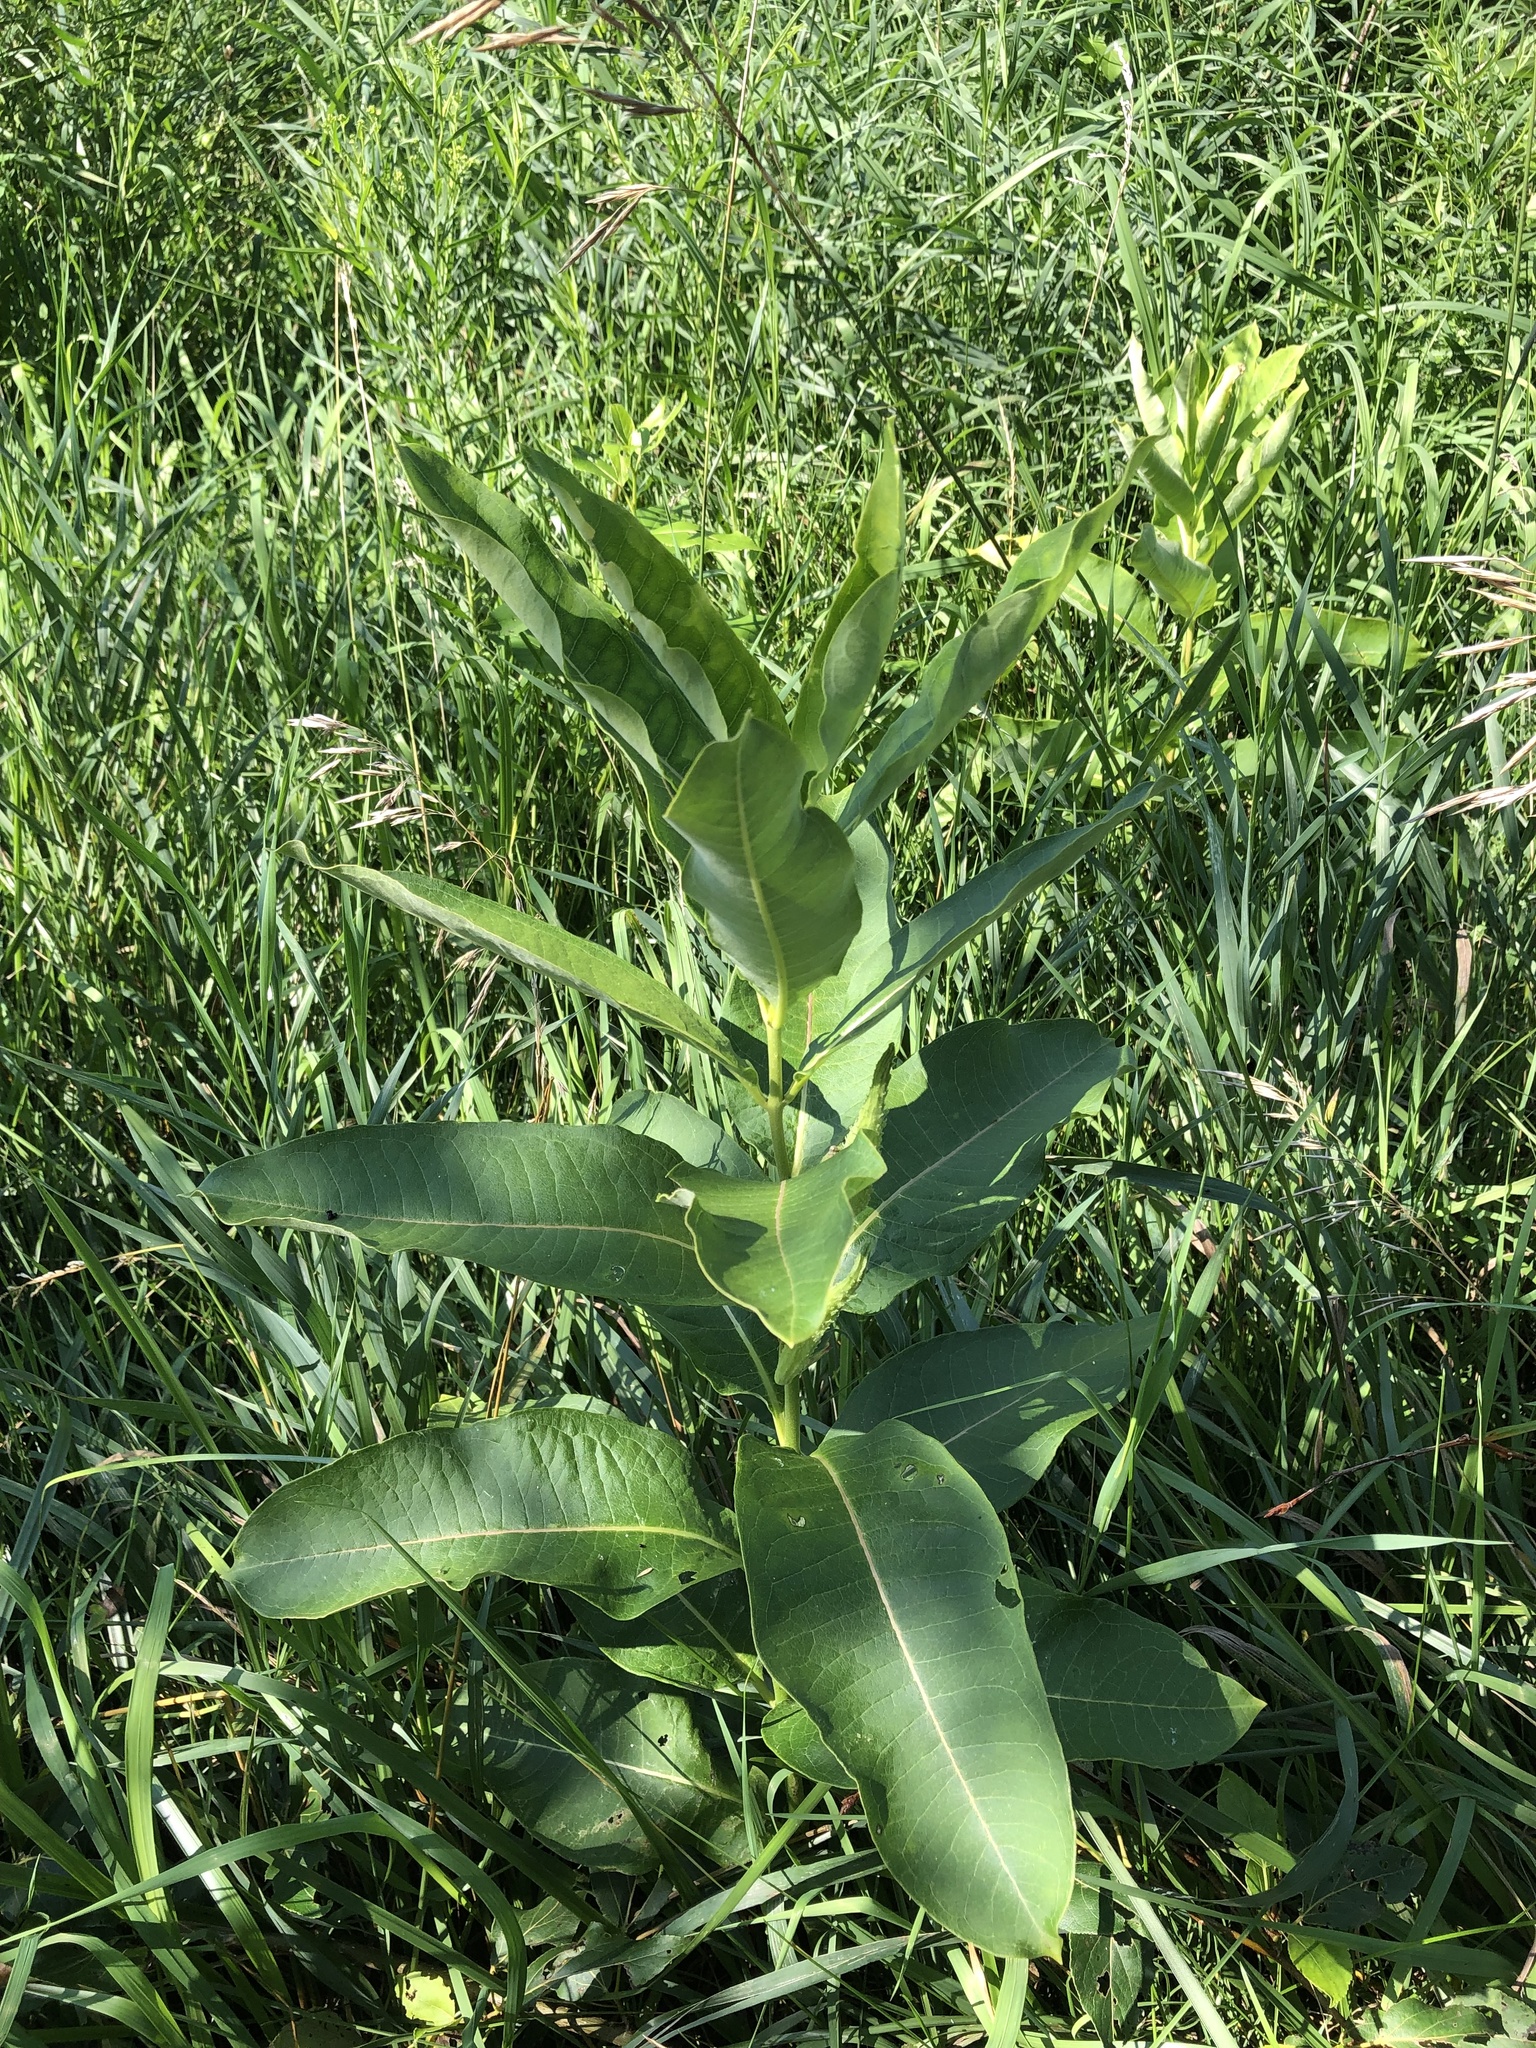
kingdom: Plantae
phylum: Tracheophyta
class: Magnoliopsida
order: Gentianales
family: Apocynaceae
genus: Asclepias
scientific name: Asclepias syriaca
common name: Common milkweed
